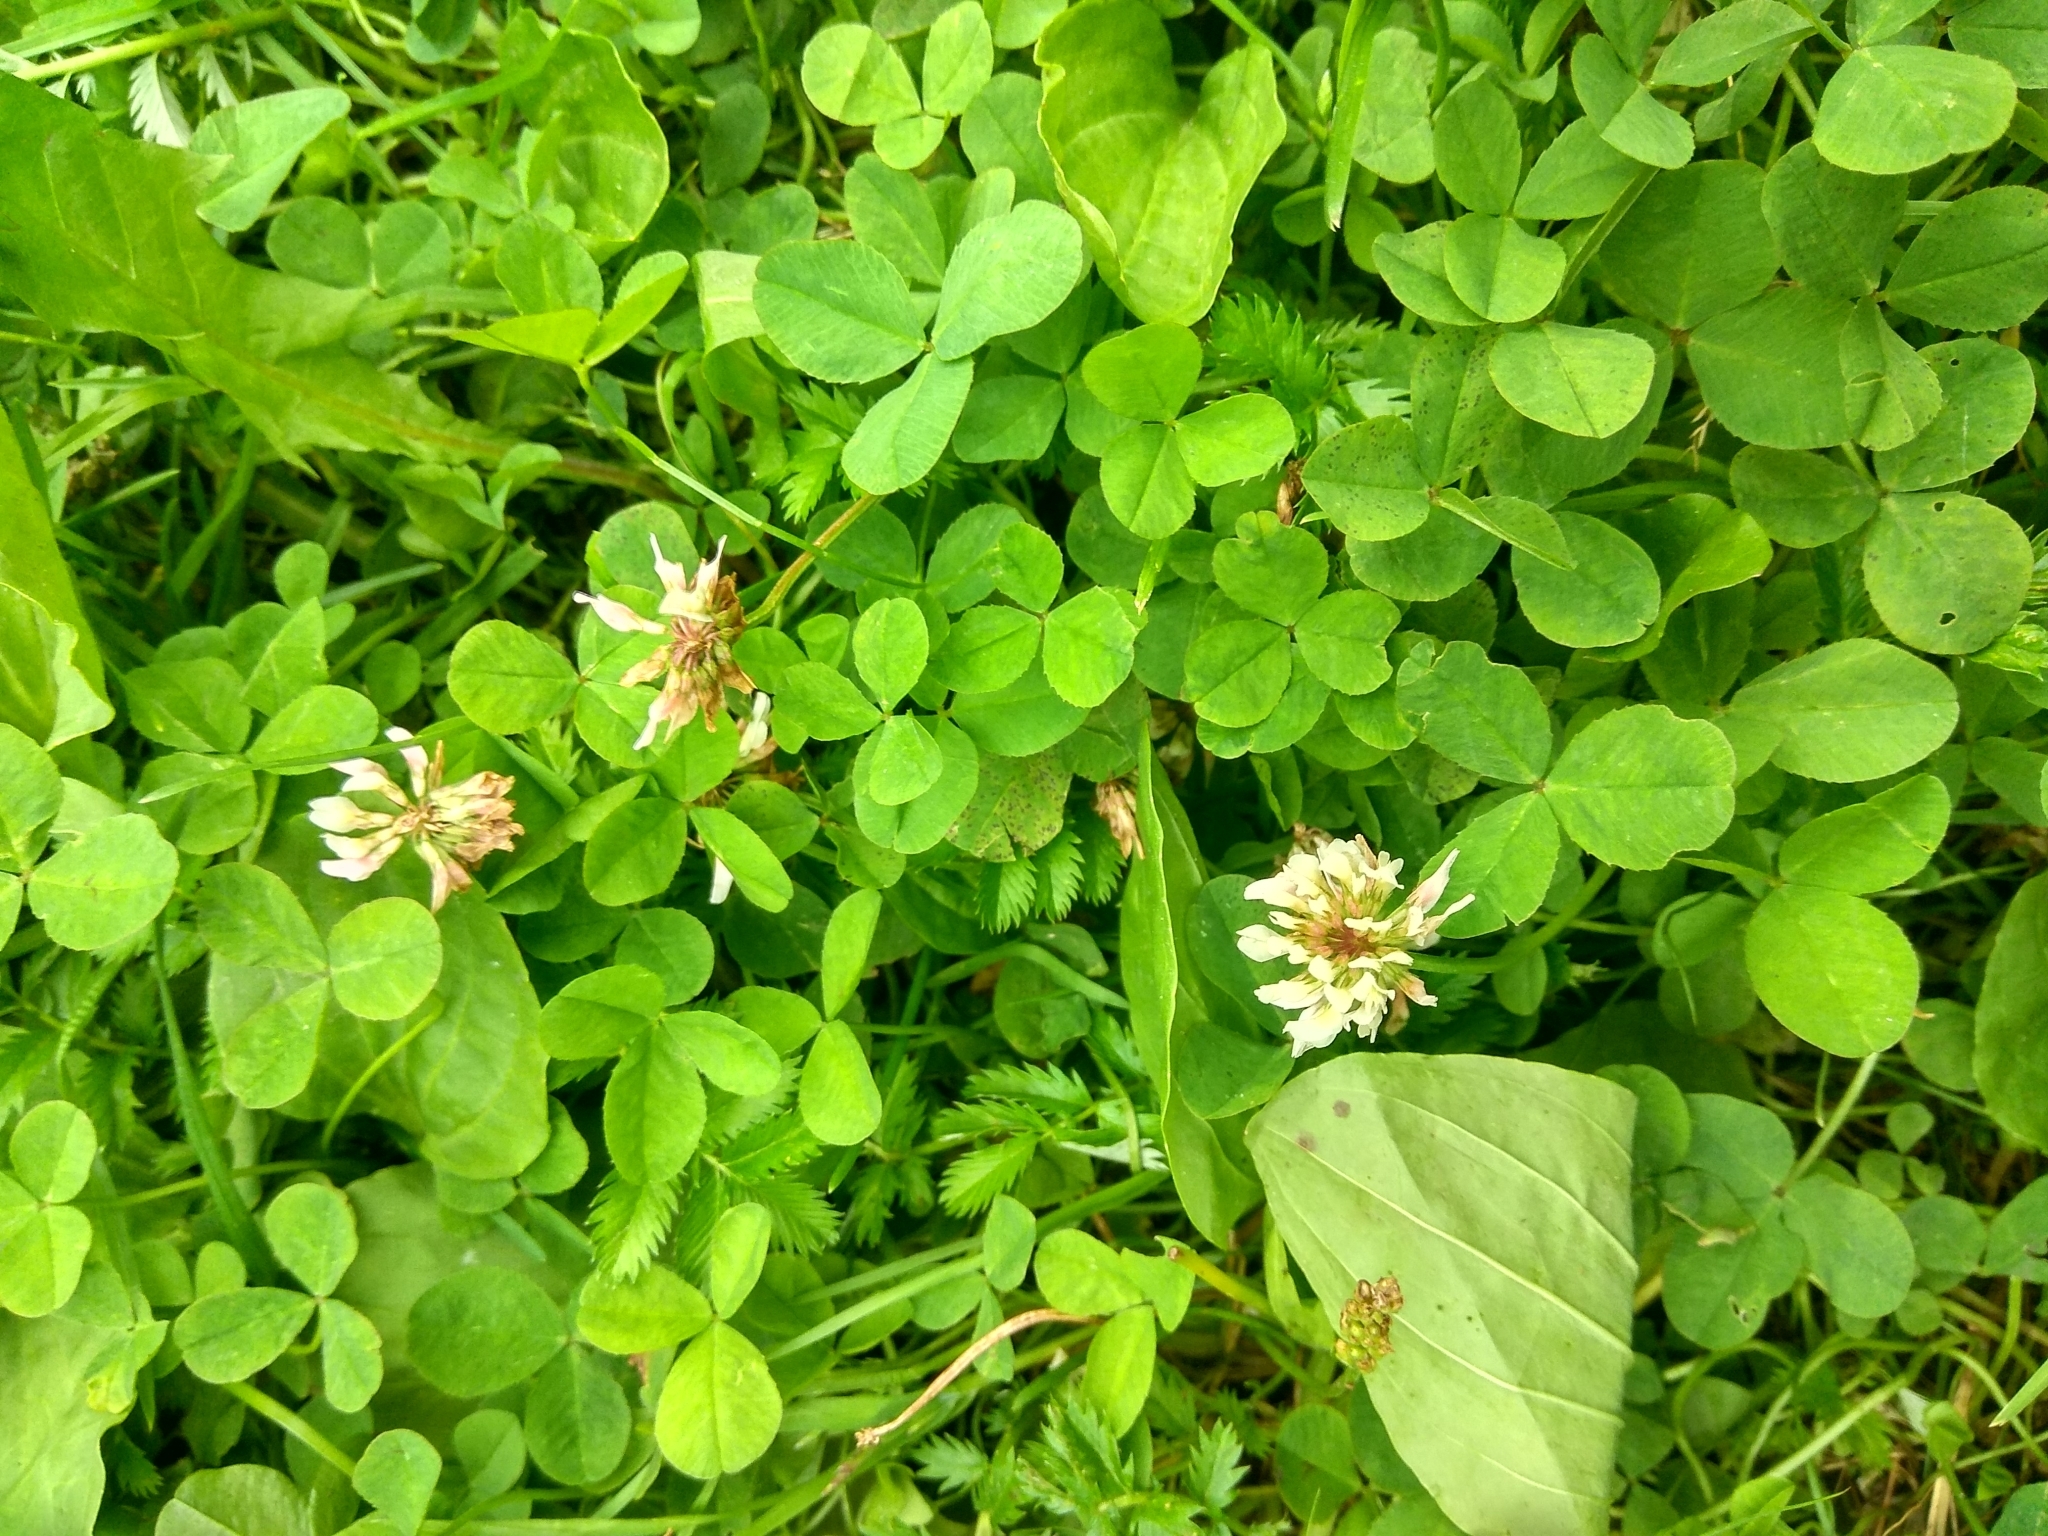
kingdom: Plantae
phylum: Tracheophyta
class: Magnoliopsida
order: Fabales
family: Fabaceae
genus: Trifolium
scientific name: Trifolium repens
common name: White clover
